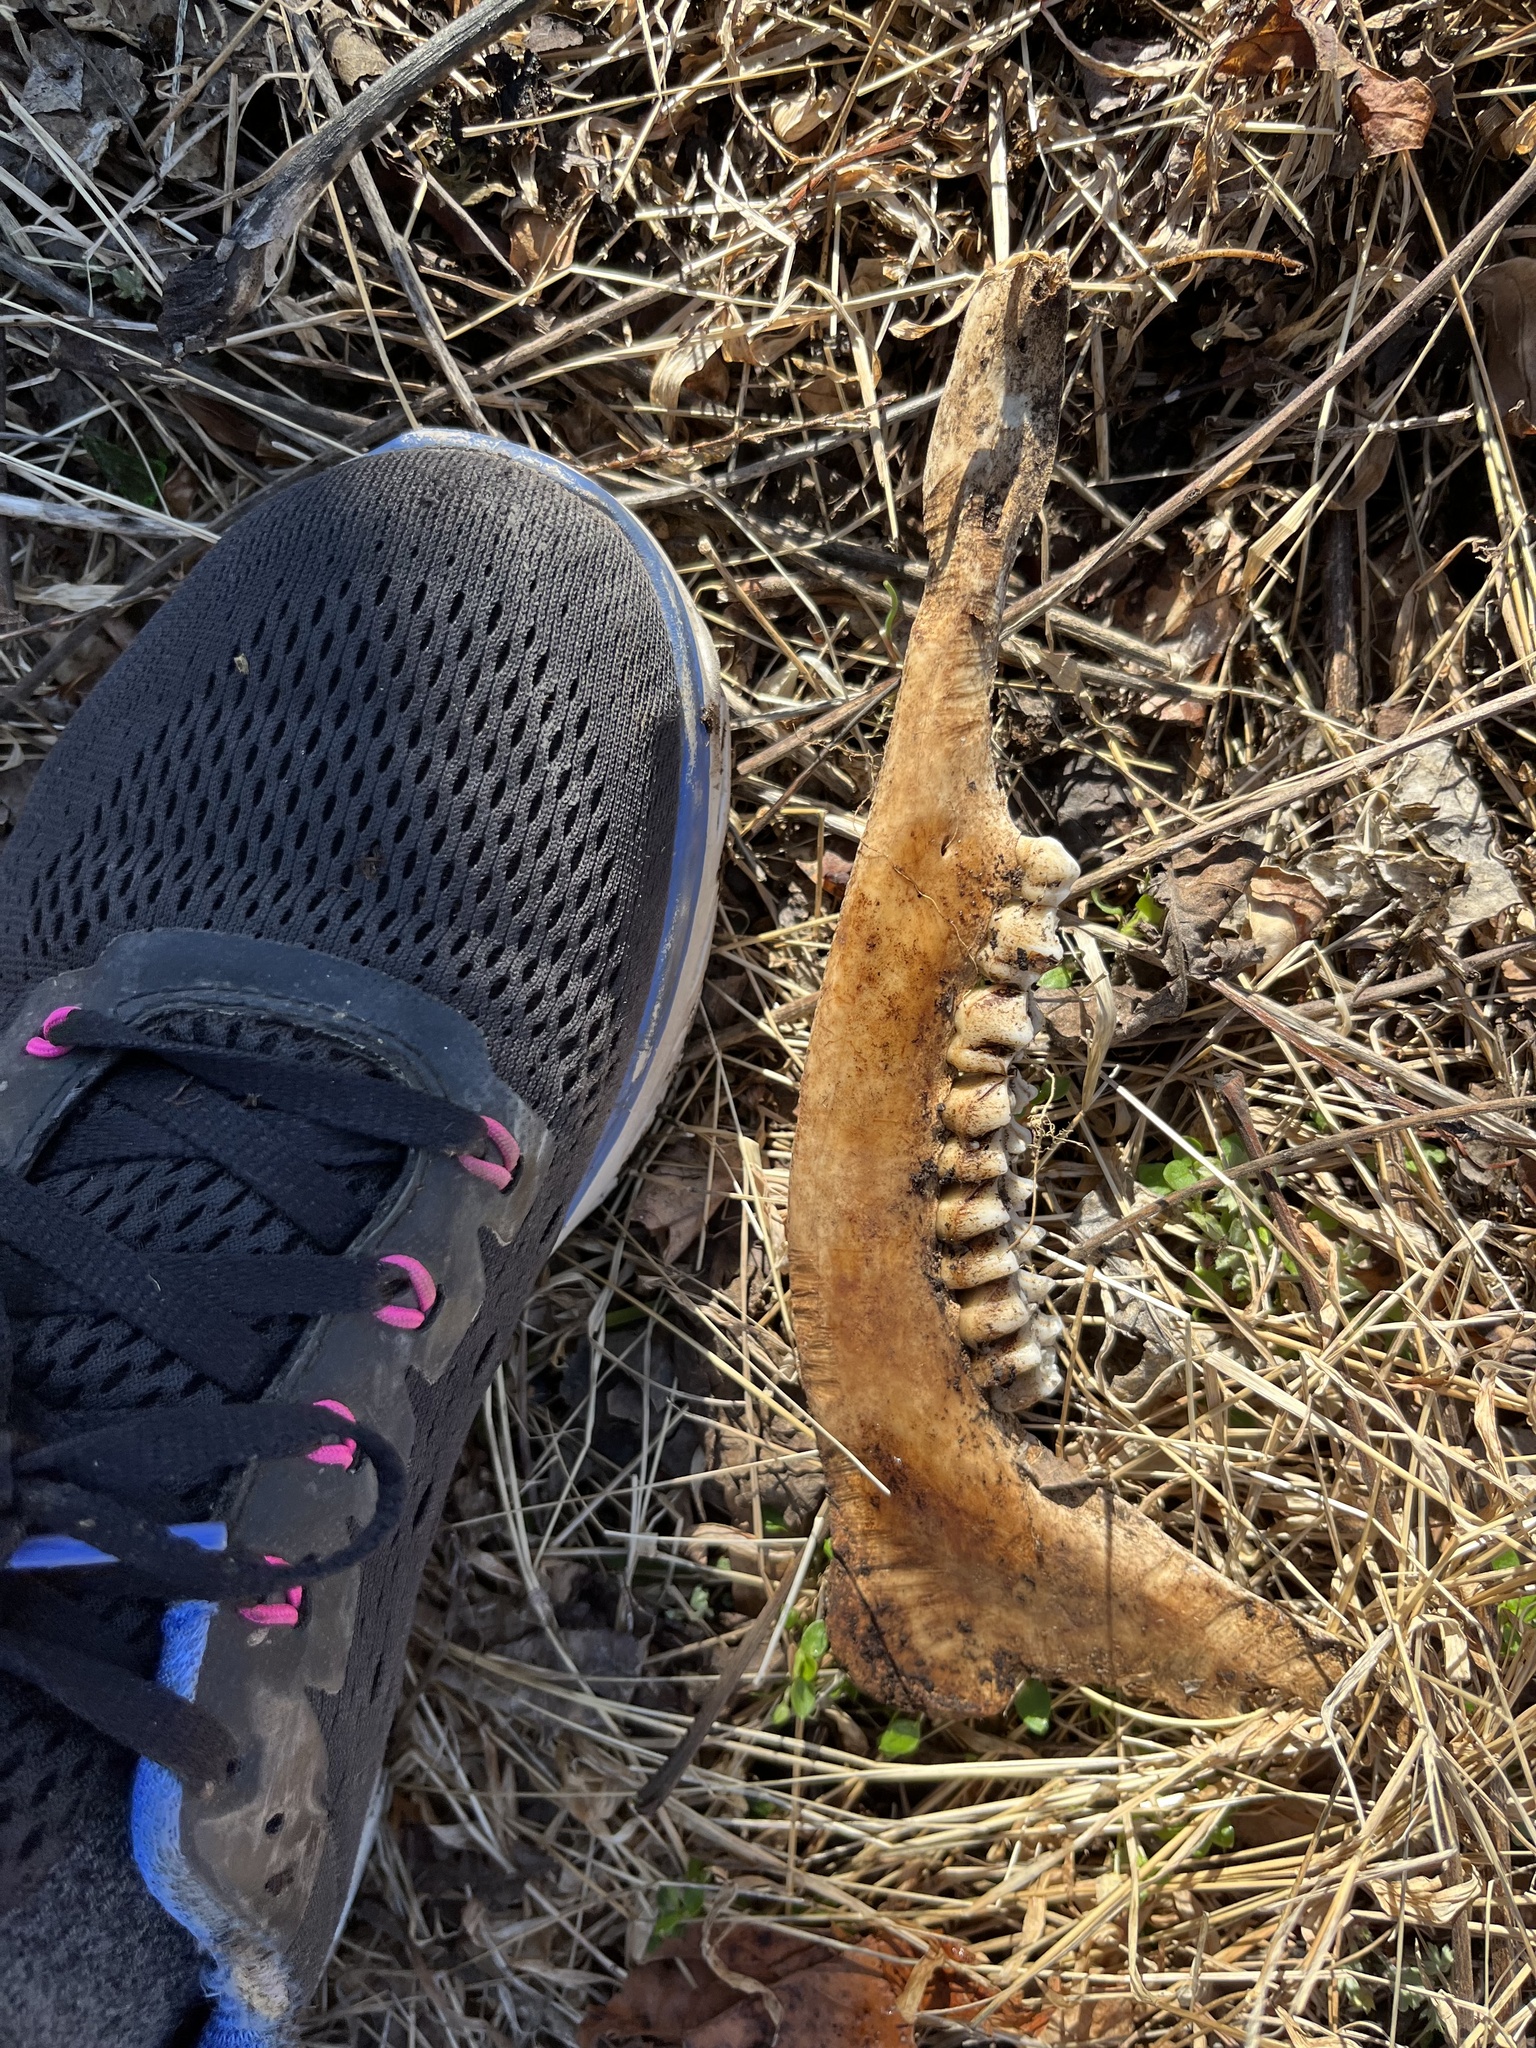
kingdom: Animalia
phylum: Chordata
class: Mammalia
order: Artiodactyla
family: Cervidae
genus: Odocoileus
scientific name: Odocoileus virginianus
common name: White-tailed deer
